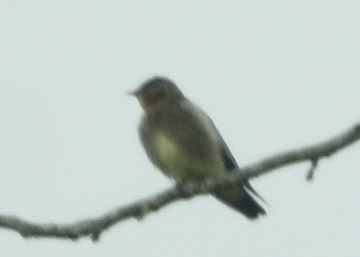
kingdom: Animalia
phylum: Chordata
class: Aves
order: Passeriformes
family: Hirundinidae
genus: Stelgidopteryx
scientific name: Stelgidopteryx ruficollis
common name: Southern rough-winged swallow
